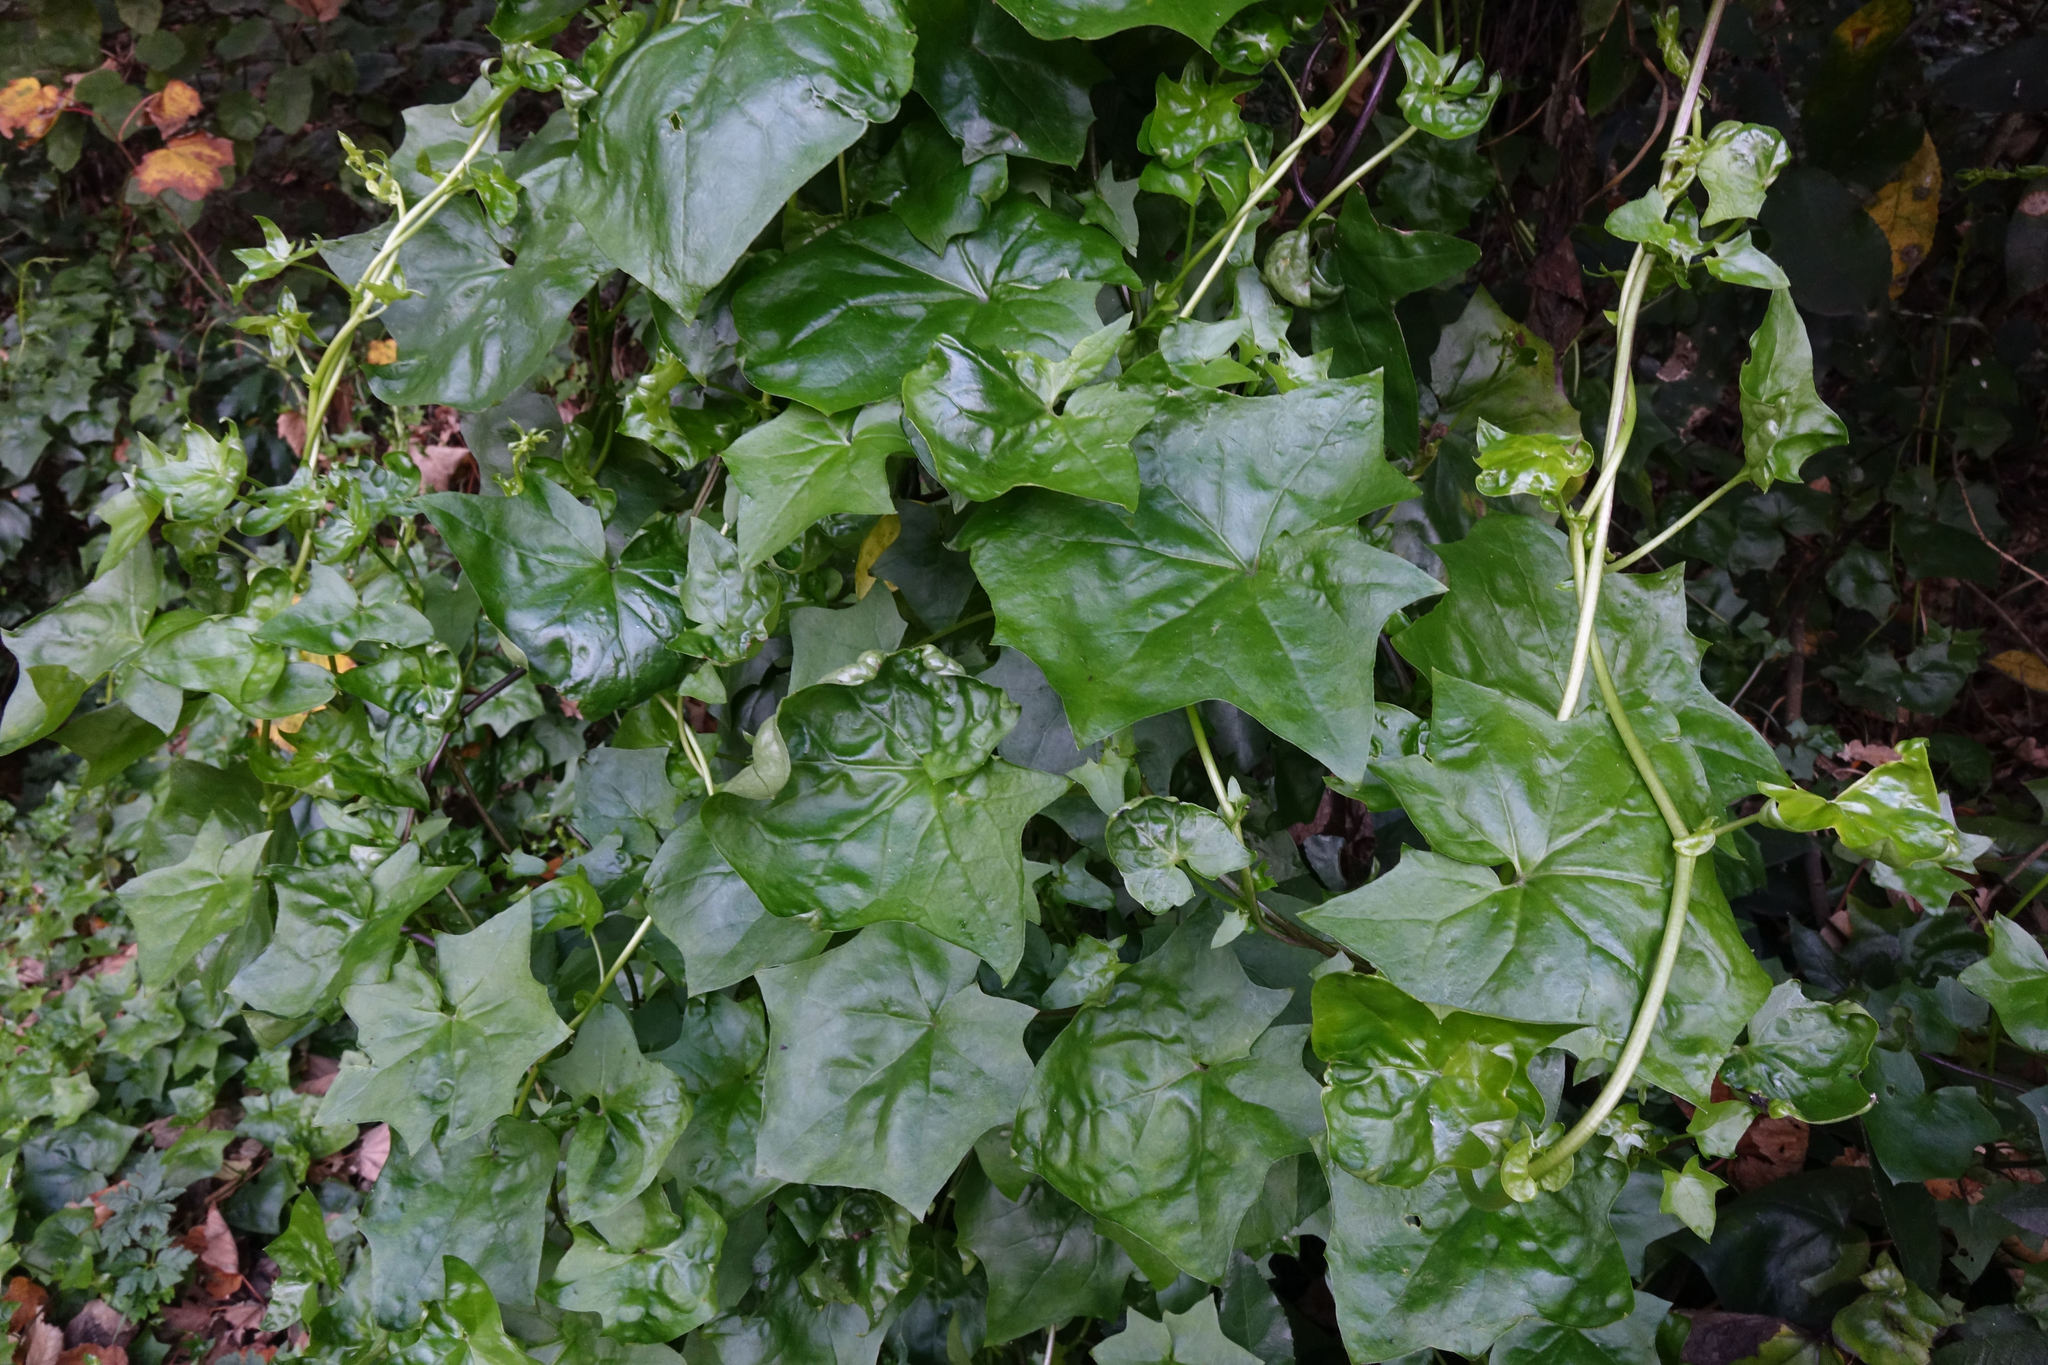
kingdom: Plantae
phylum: Tracheophyta
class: Magnoliopsida
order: Asterales
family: Asteraceae
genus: Delairea
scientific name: Delairea odorata
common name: Cape-ivy
